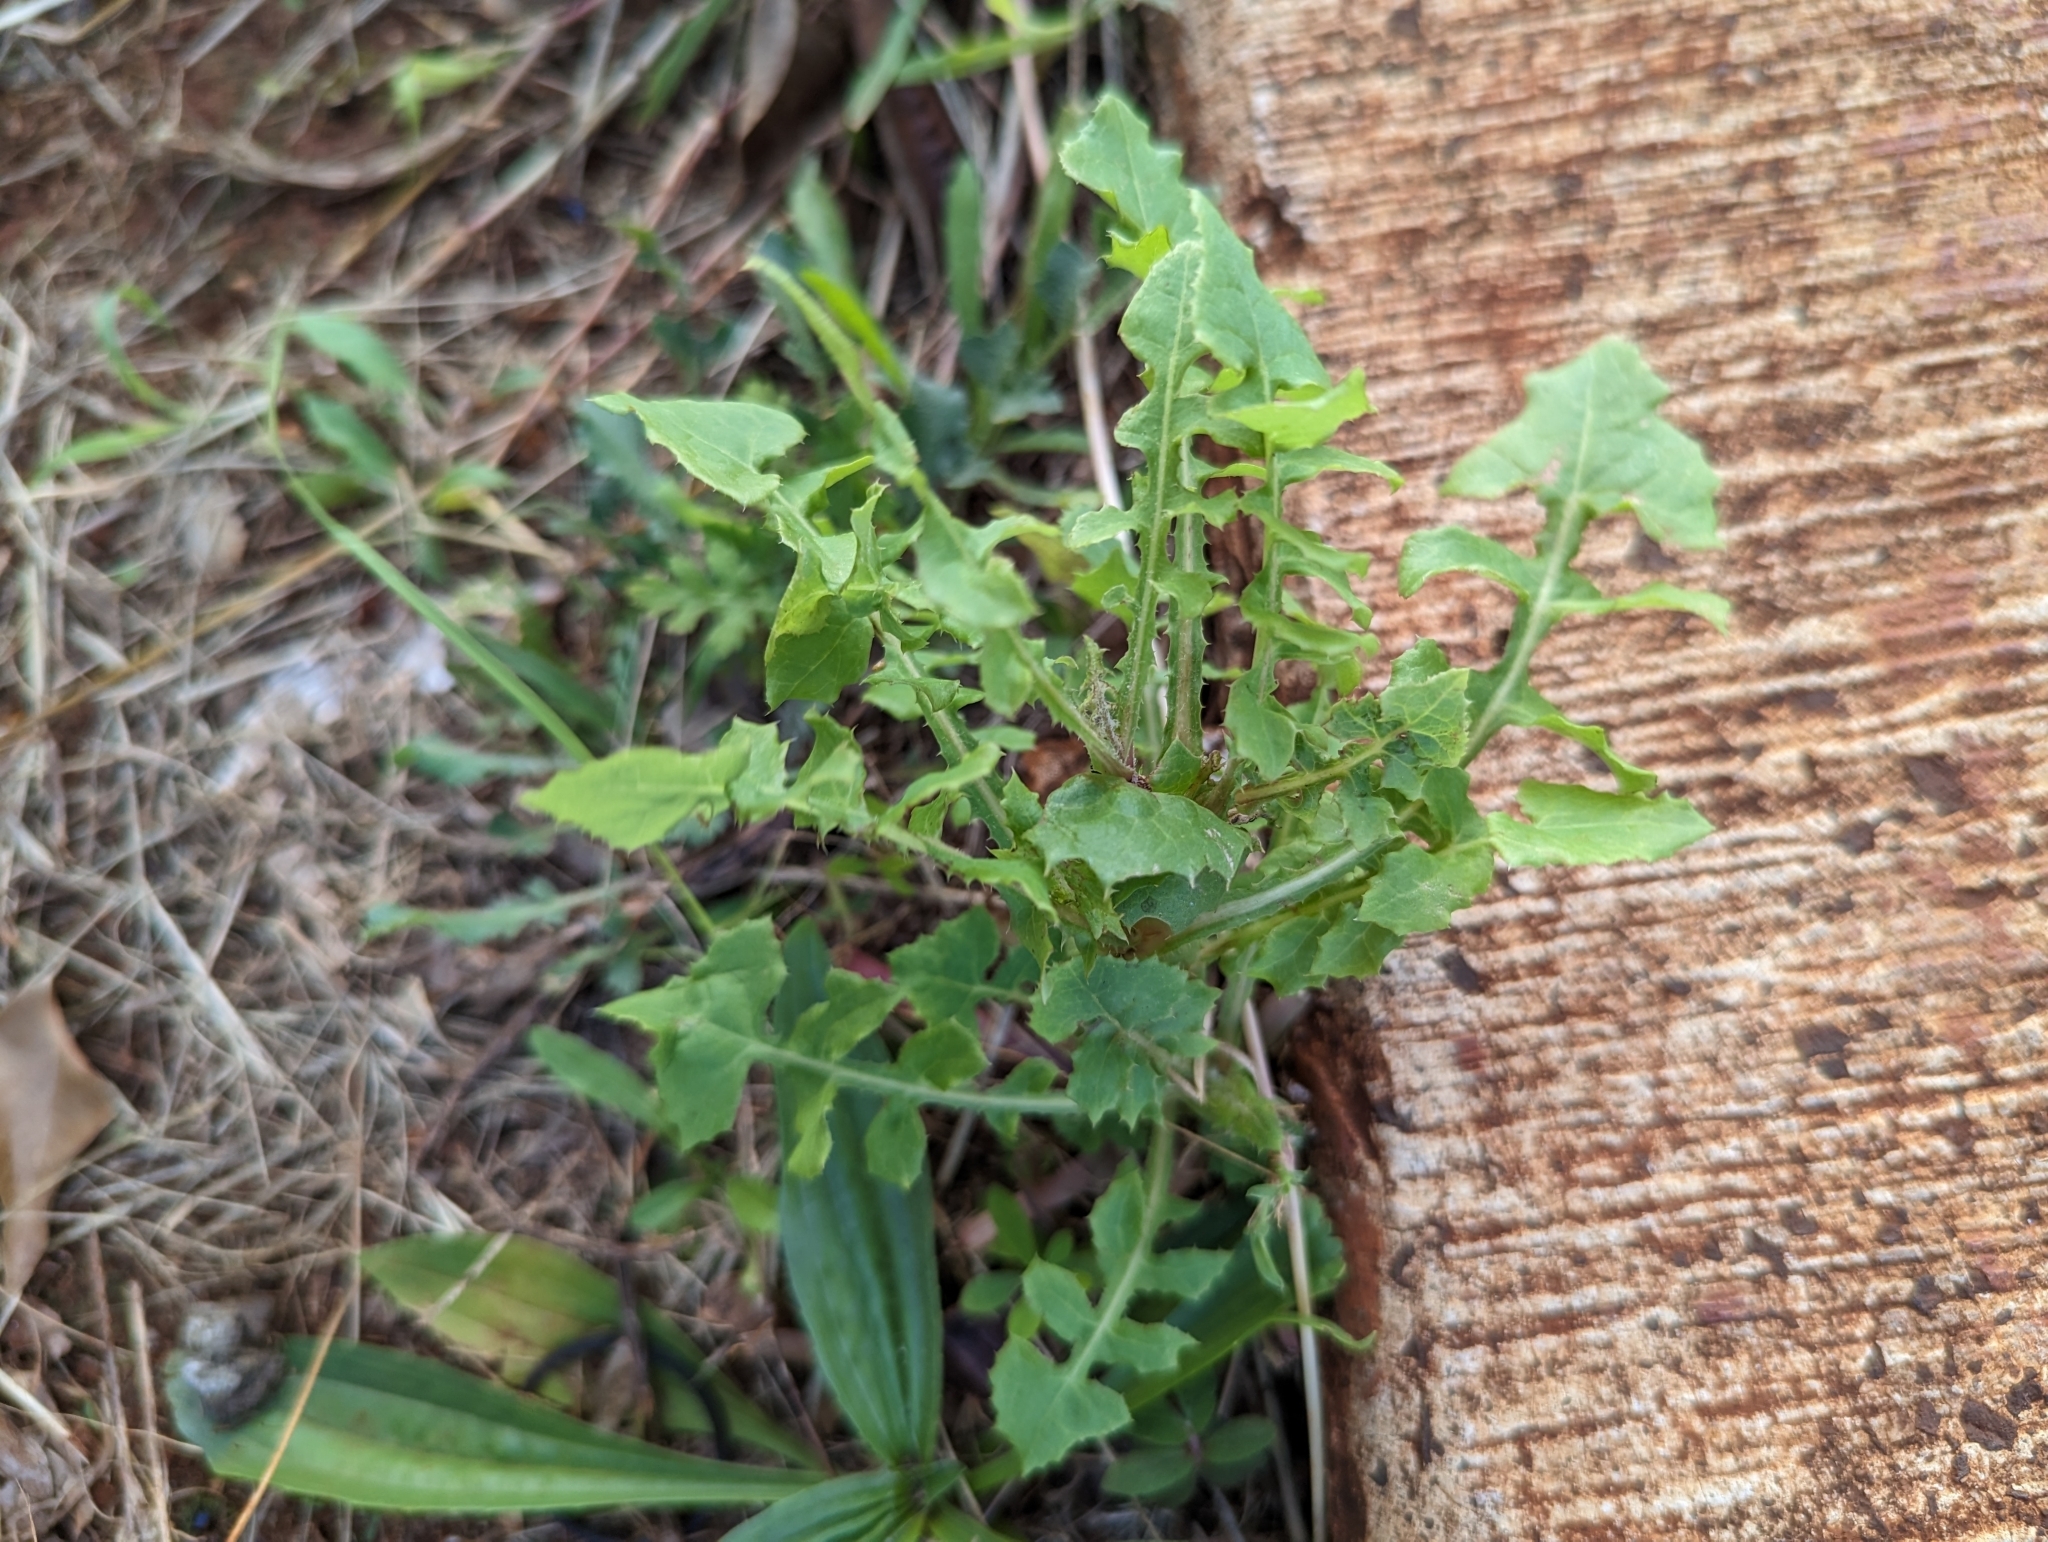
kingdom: Plantae
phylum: Tracheophyta
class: Magnoliopsida
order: Asterales
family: Asteraceae
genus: Sonchus
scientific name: Sonchus oleraceus
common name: Common sowthistle
